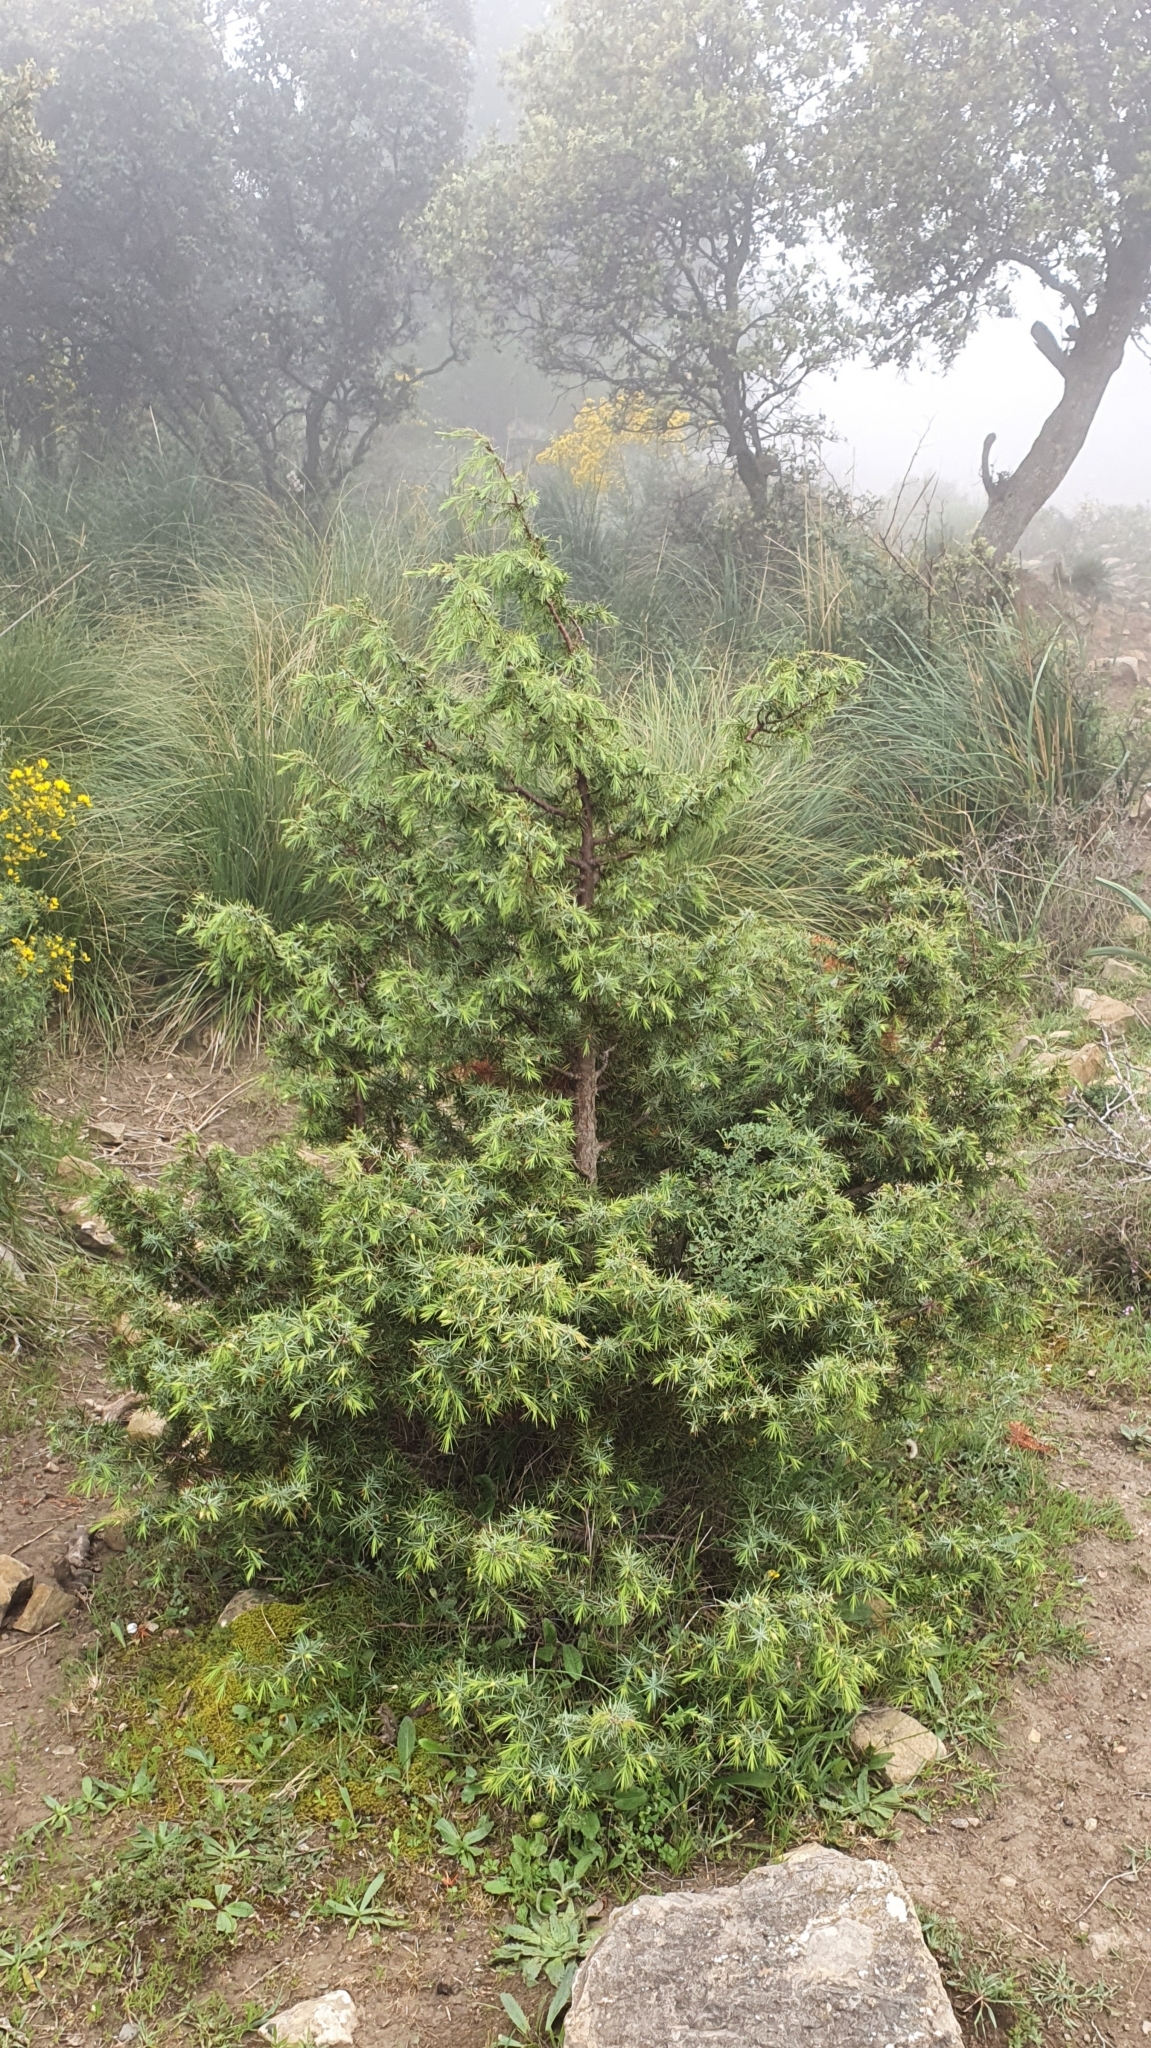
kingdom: Plantae
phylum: Tracheophyta
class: Pinopsida
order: Pinales
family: Cupressaceae
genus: Juniperus
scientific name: Juniperus oxycedrus
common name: Prickly juniper
